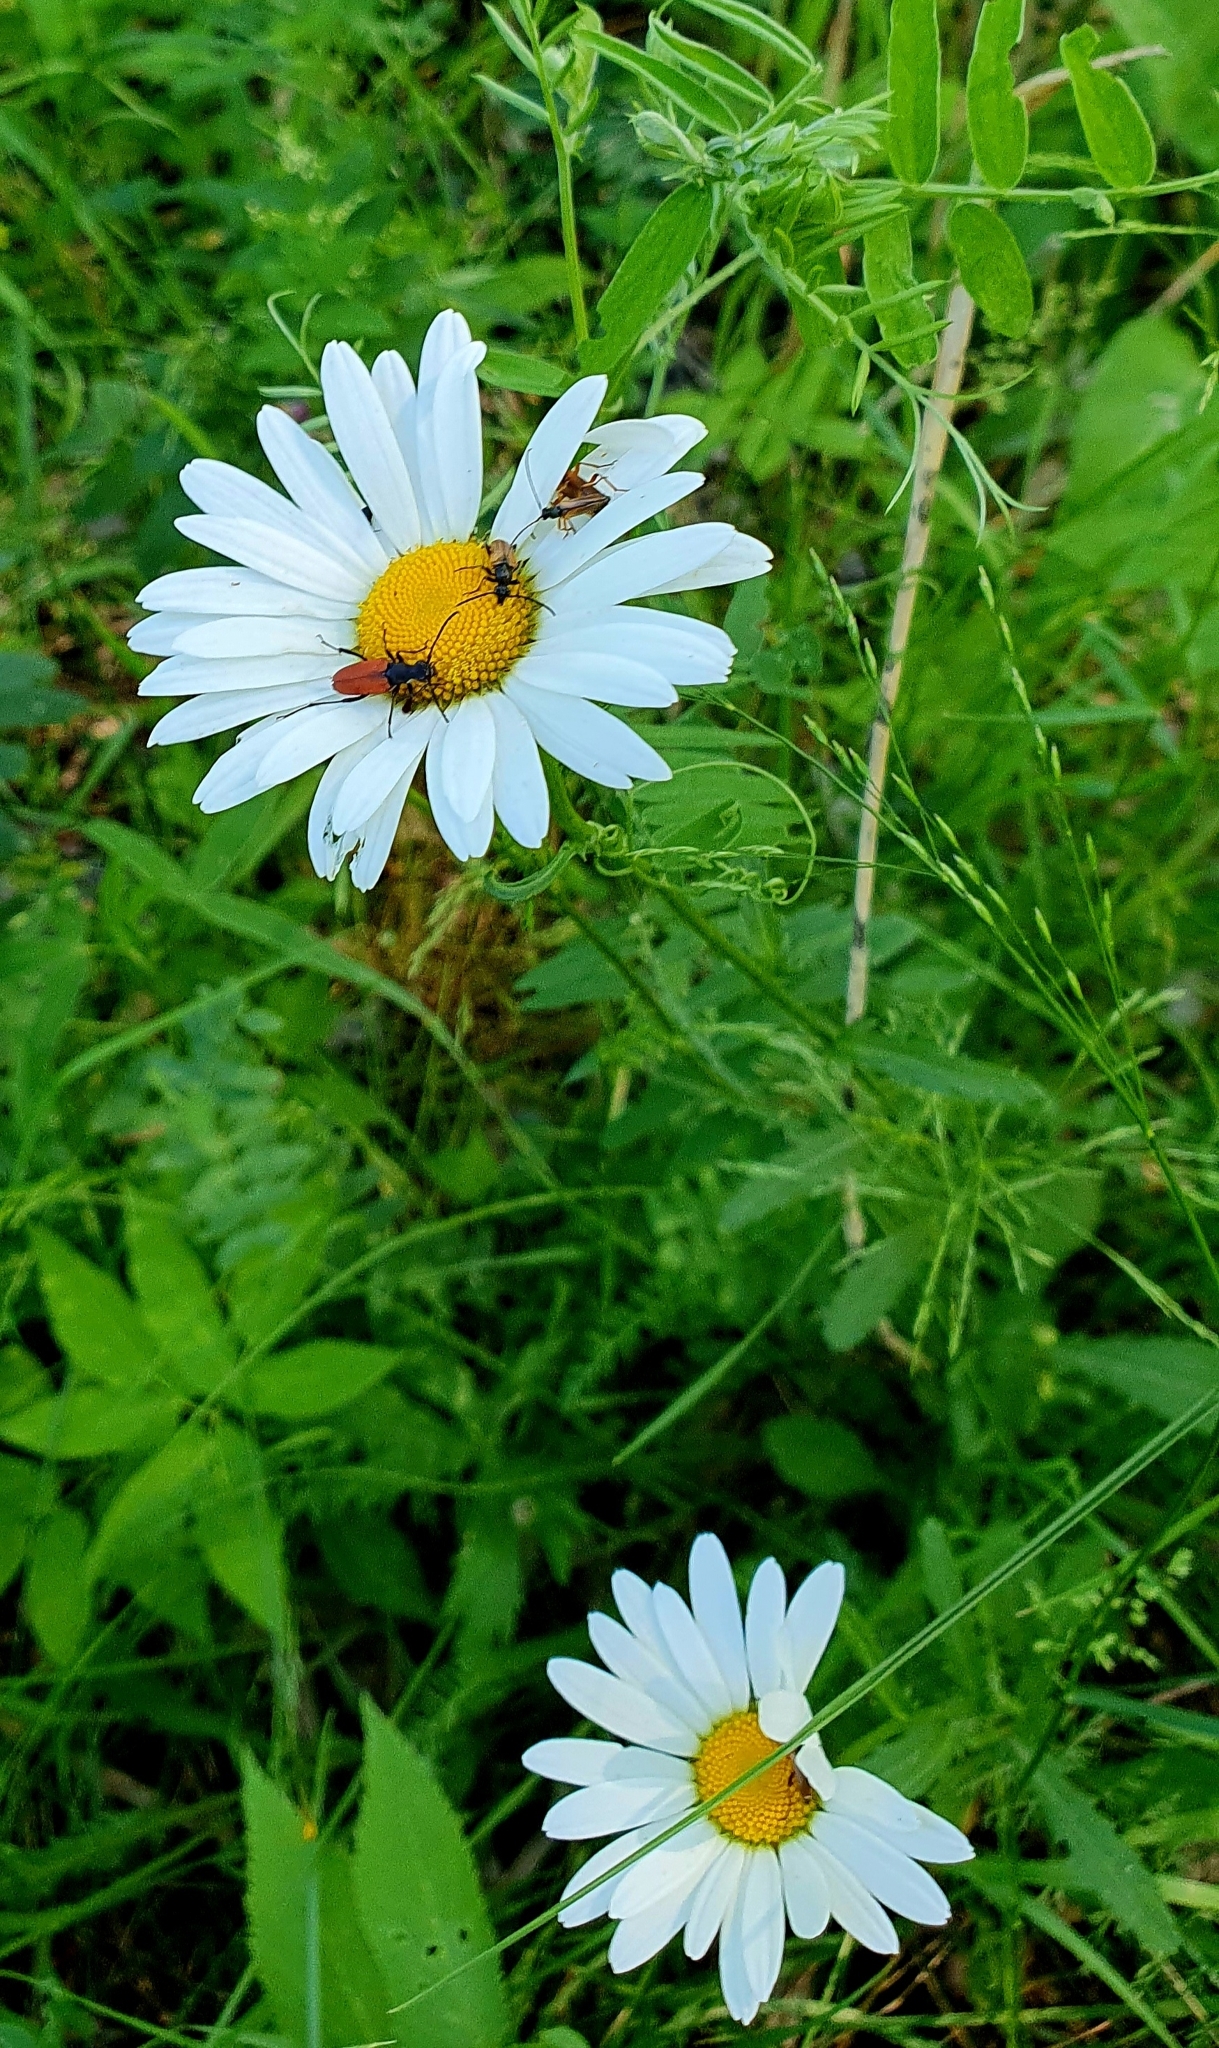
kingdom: Plantae
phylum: Tracheophyta
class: Magnoliopsida
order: Asterales
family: Asteraceae
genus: Leucanthemum
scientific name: Leucanthemum vulgare
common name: Oxeye daisy
